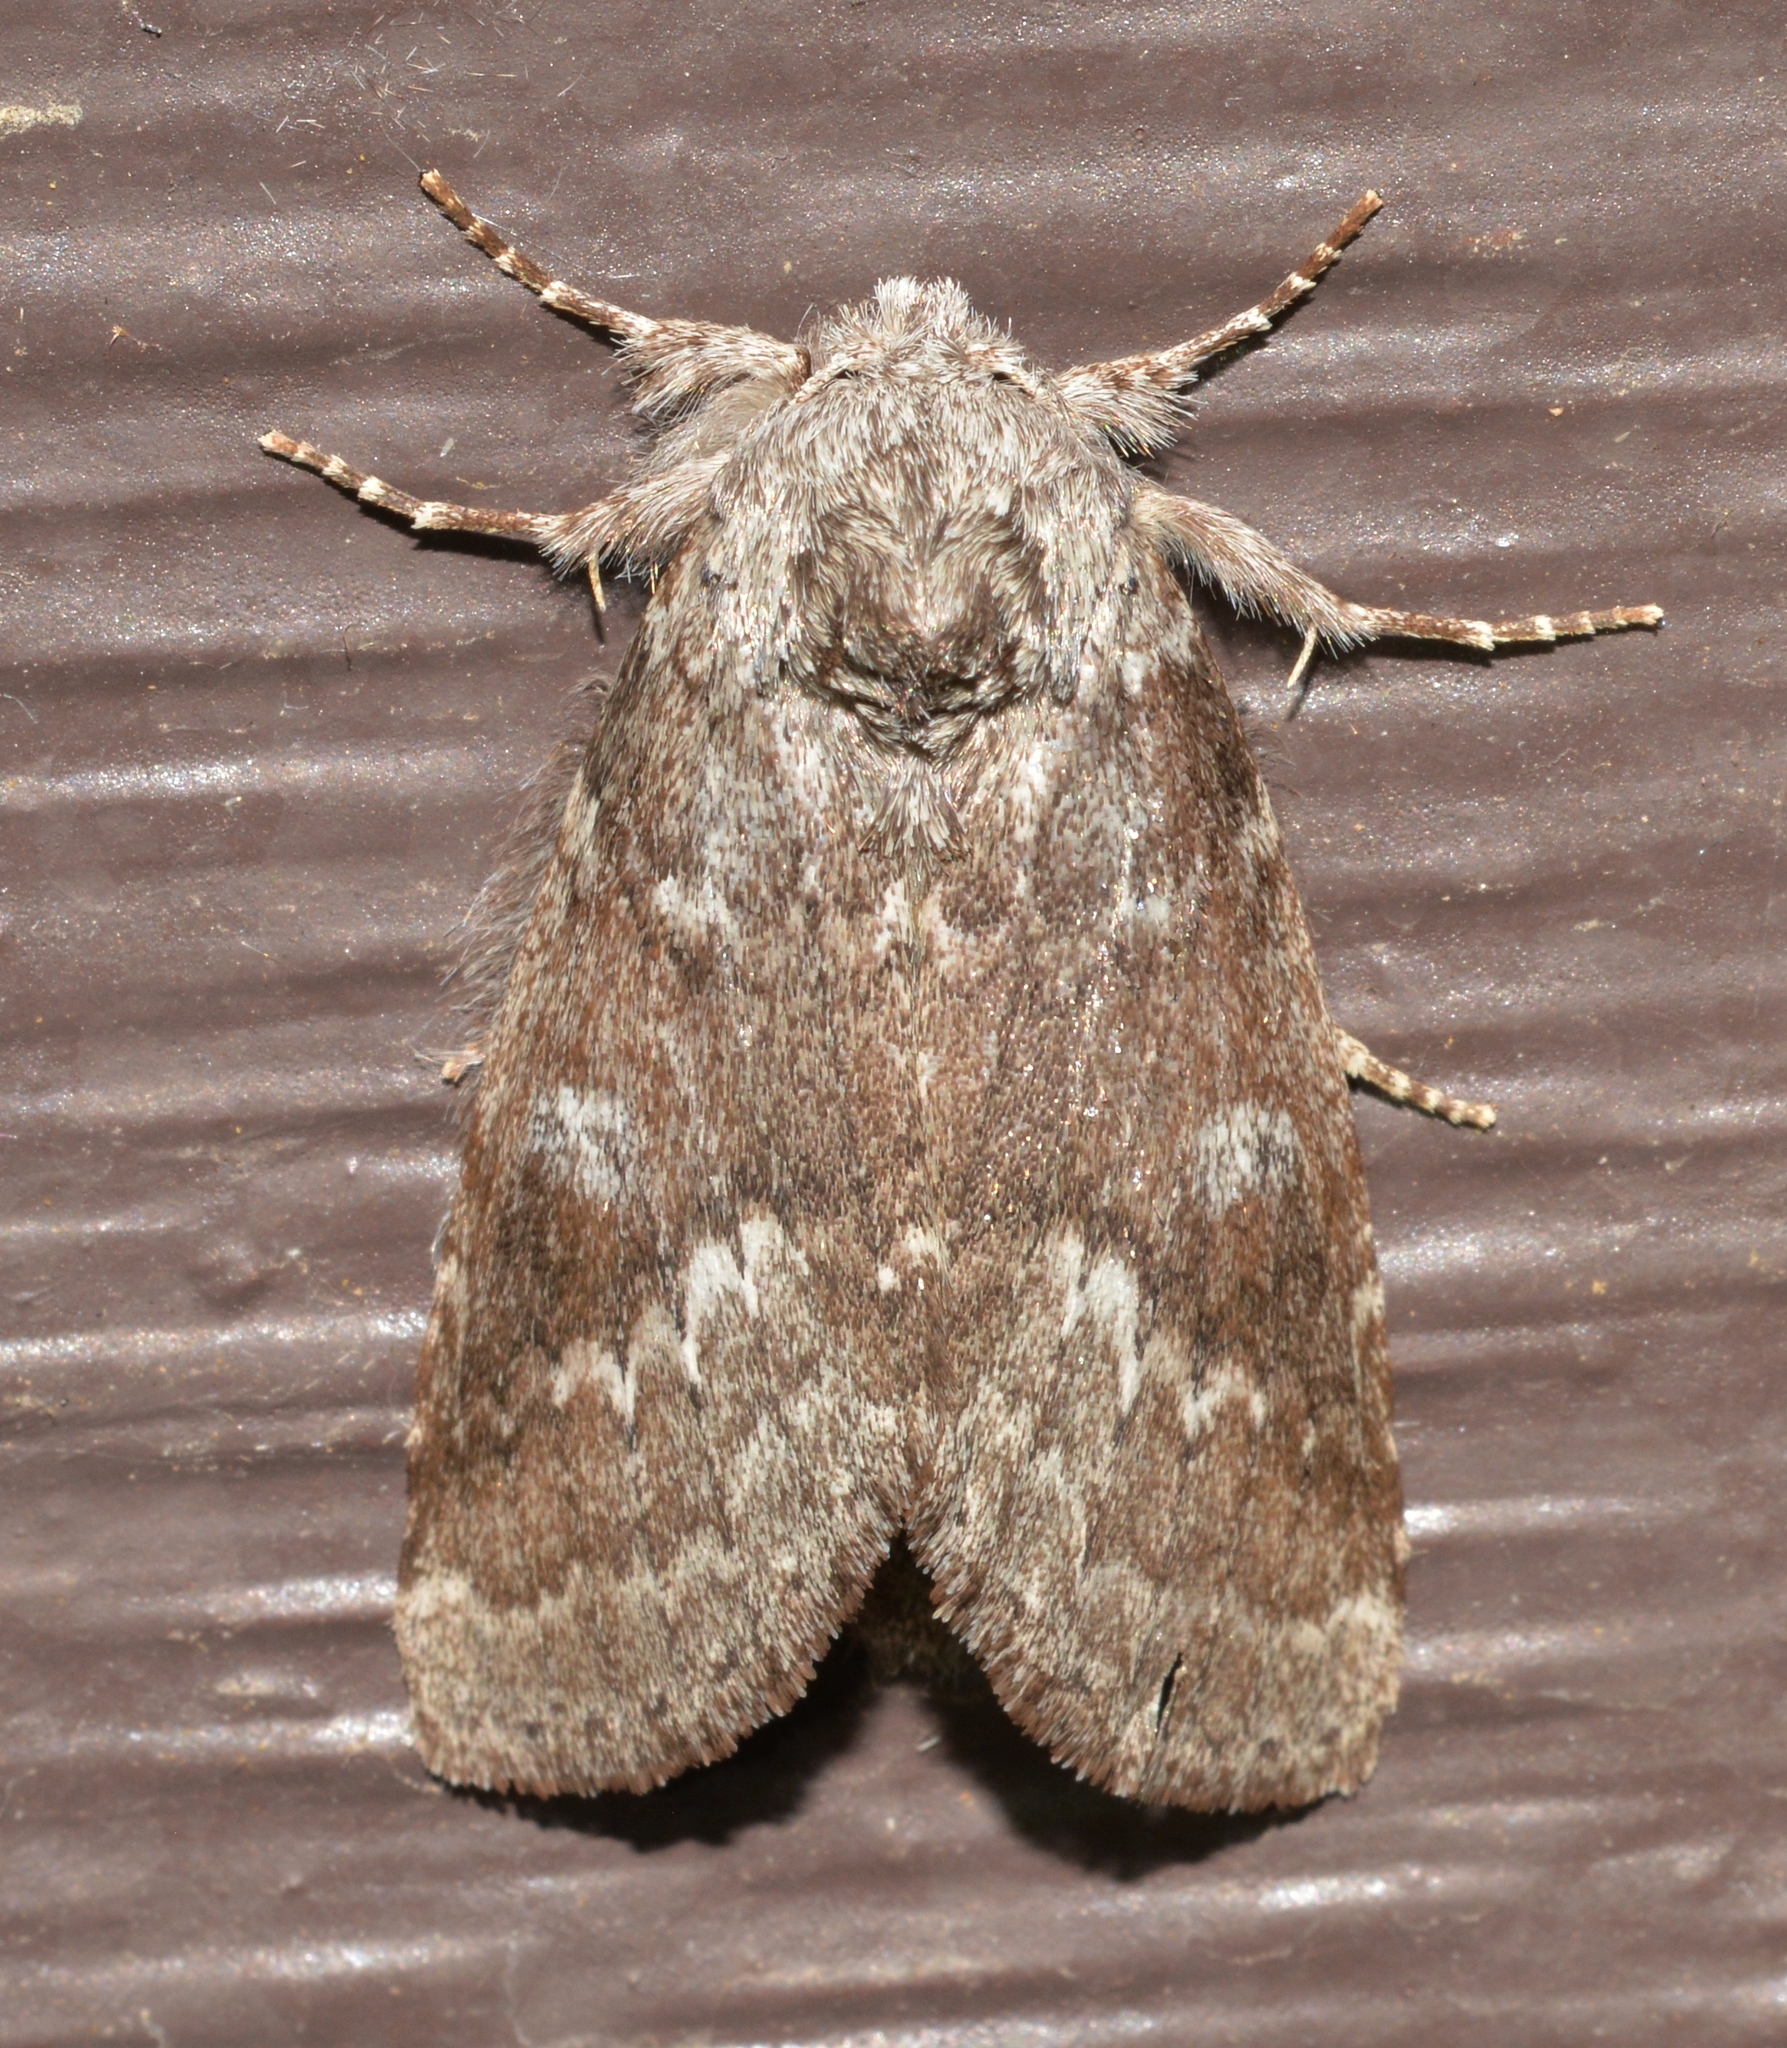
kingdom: Animalia
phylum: Arthropoda
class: Insecta
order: Lepidoptera
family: Notodontidae
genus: Lochmaeus
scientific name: Lochmaeus manteo
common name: Variable oakleaf caterpillar moth
